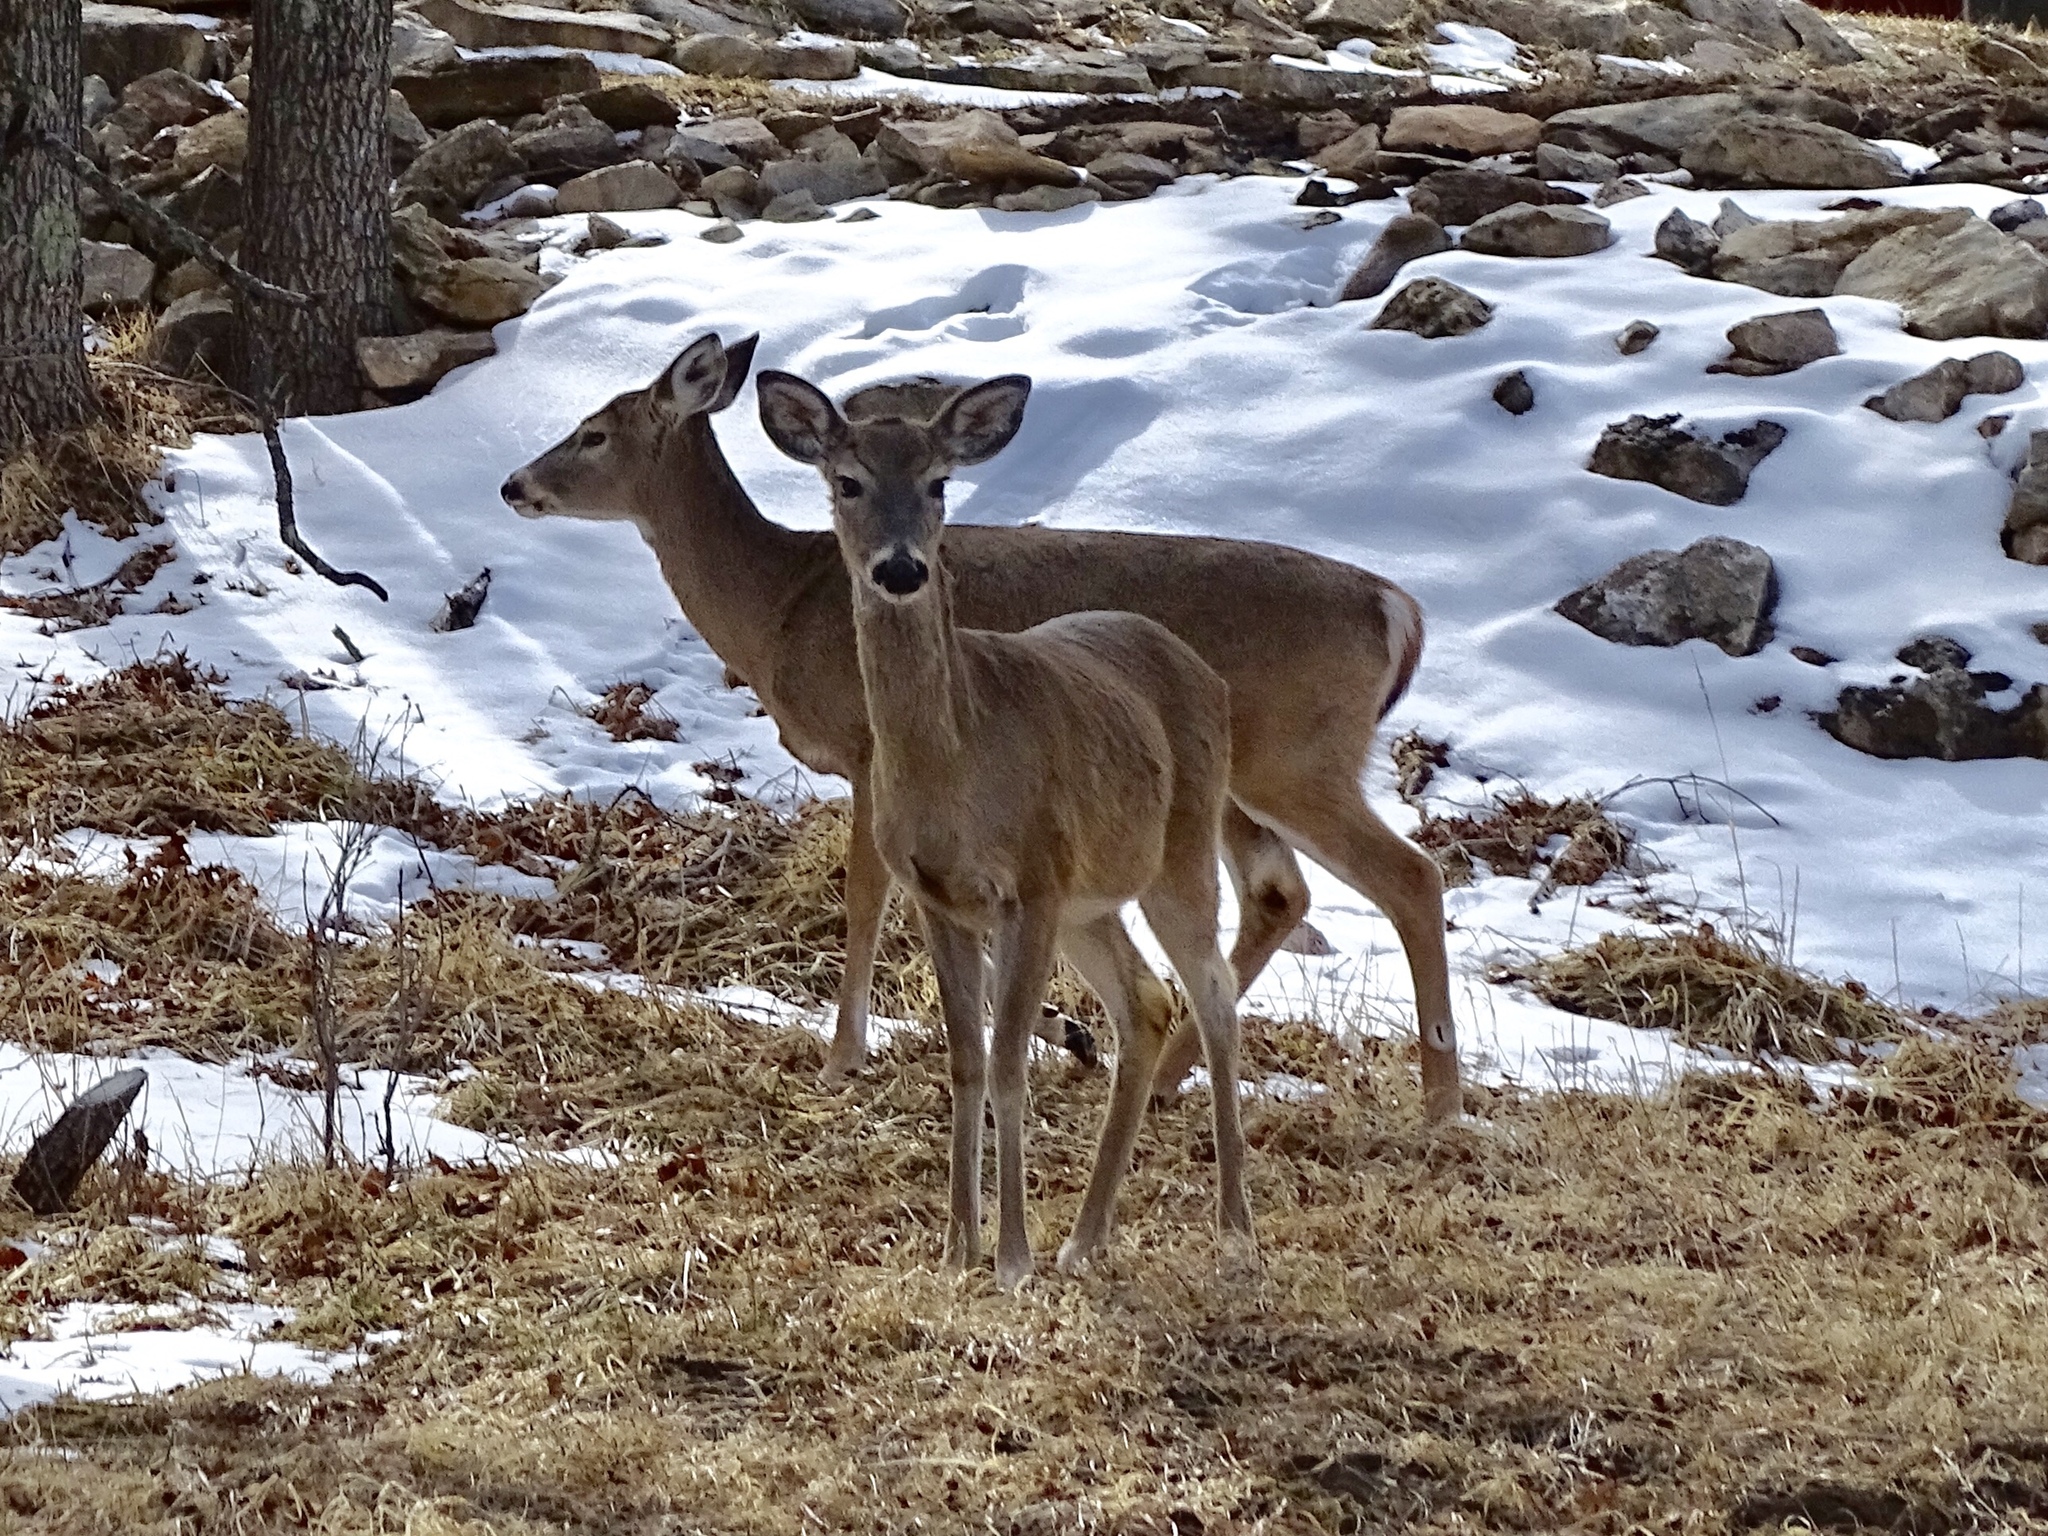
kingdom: Animalia
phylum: Chordata
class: Mammalia
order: Artiodactyla
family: Cervidae
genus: Odocoileus
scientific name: Odocoileus virginianus
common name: White-tailed deer
